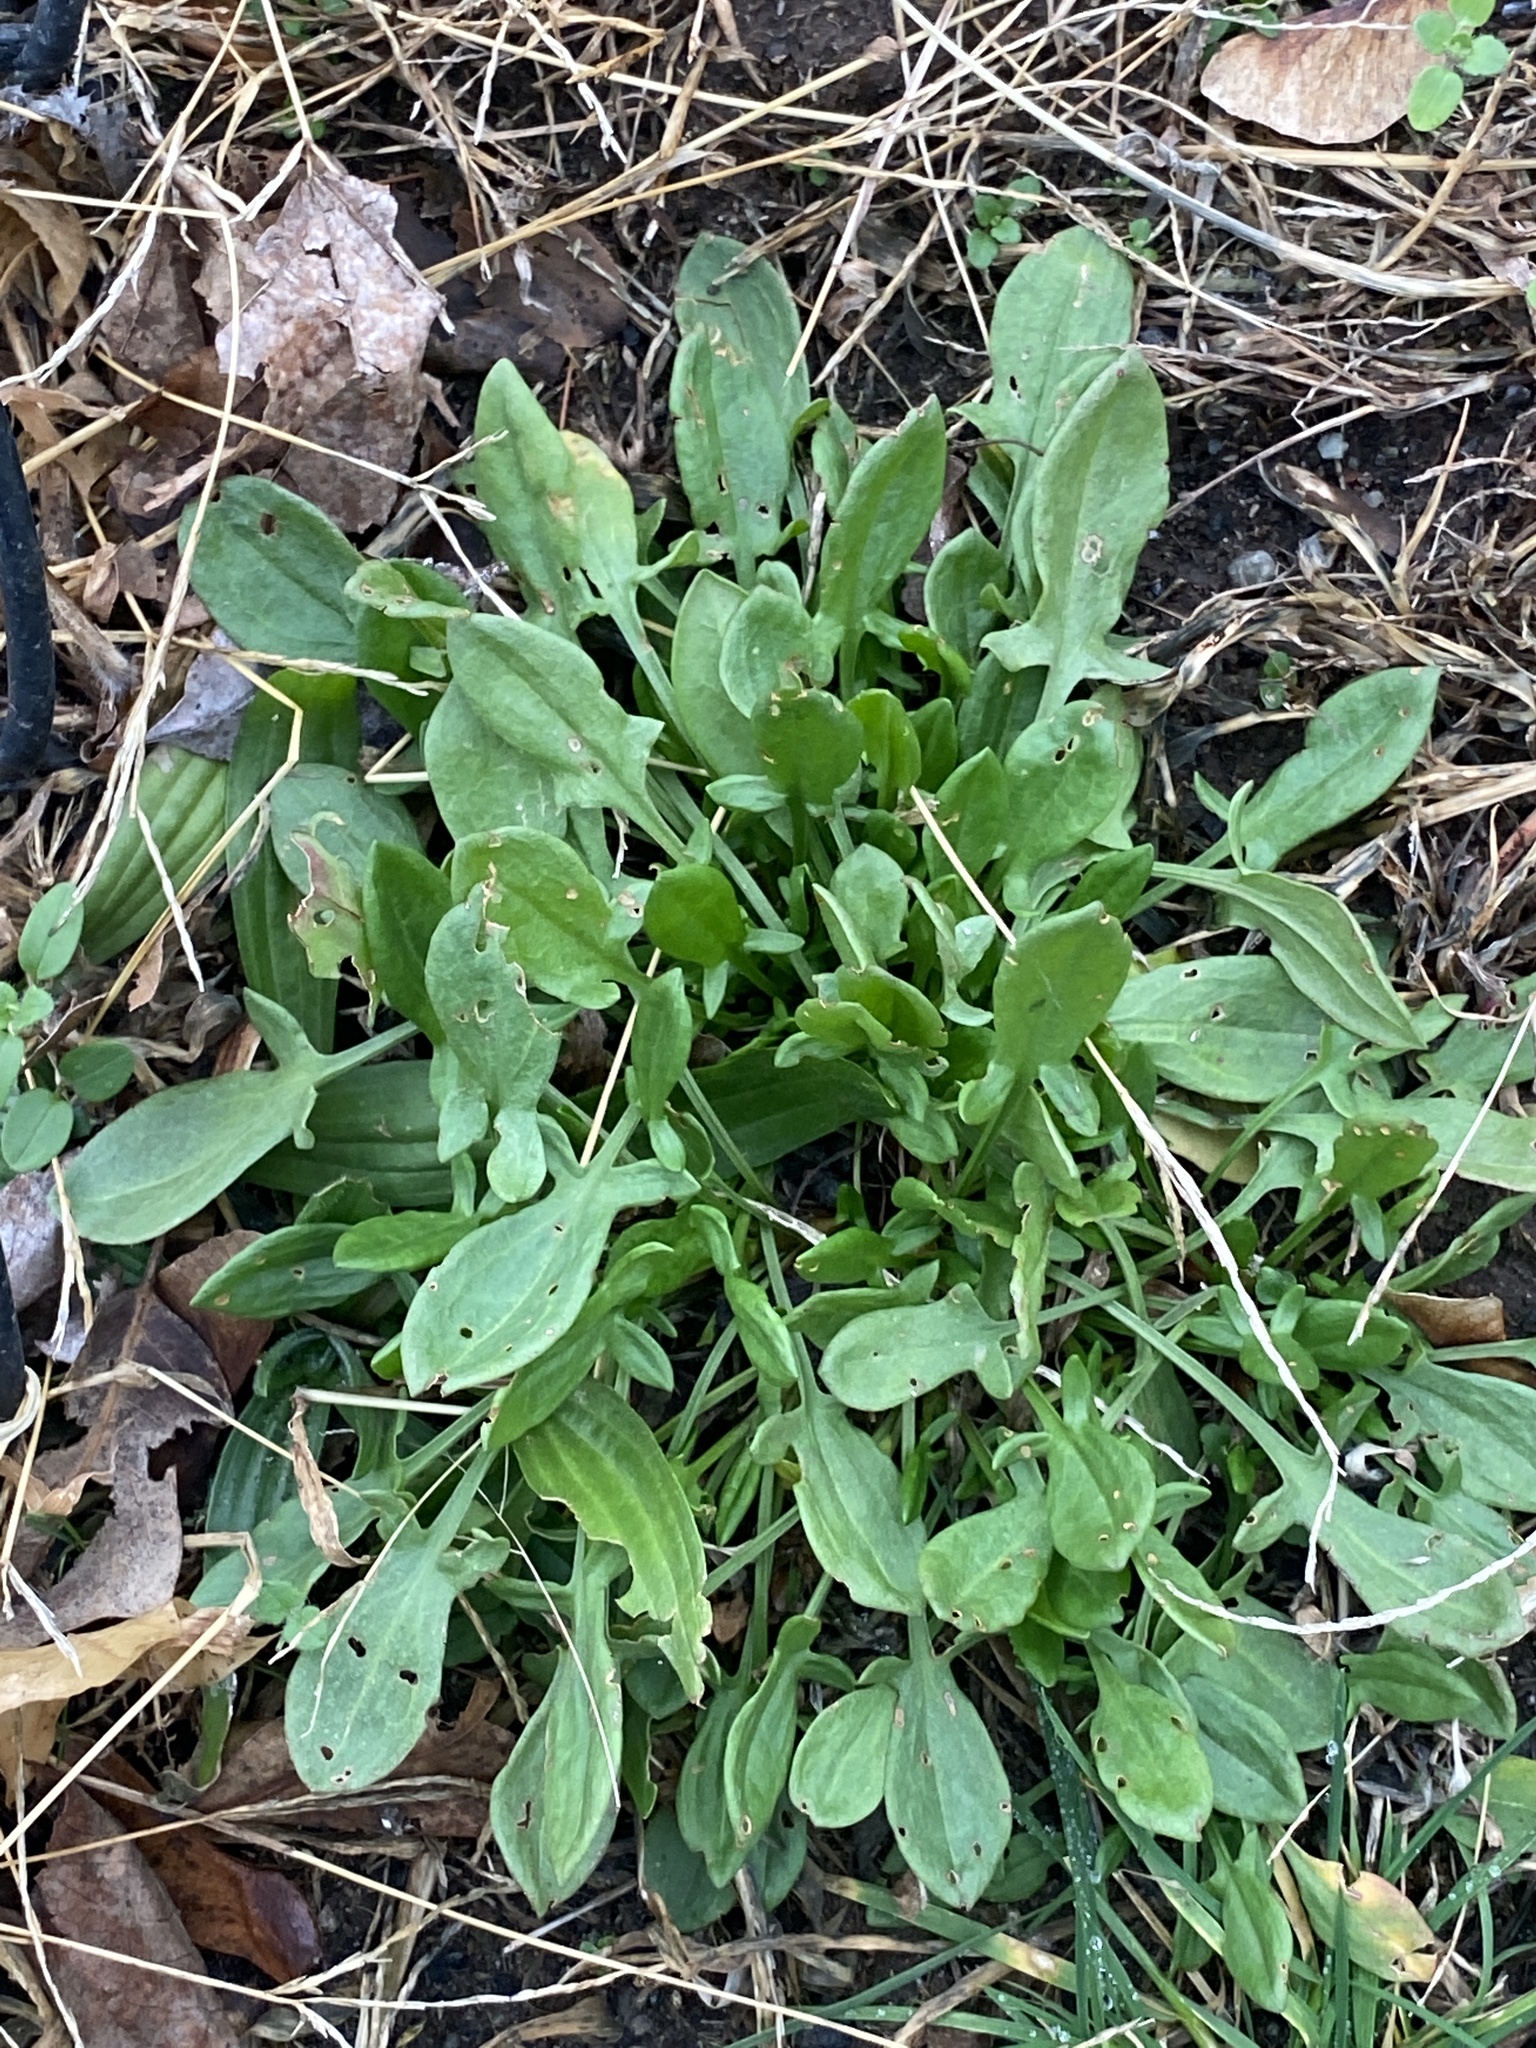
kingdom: Plantae
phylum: Tracheophyta
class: Magnoliopsida
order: Caryophyllales
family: Polygonaceae
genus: Rumex
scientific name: Rumex acetosella
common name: Common sheep sorrel
